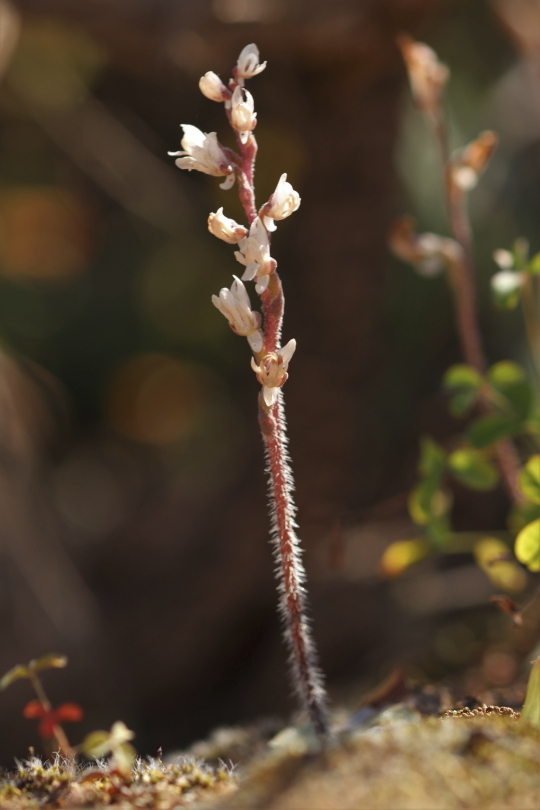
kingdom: Plantae
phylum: Tracheophyta
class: Liliopsida
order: Asparagales
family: Orchidaceae
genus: Holothrix
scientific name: Holothrix aspera
